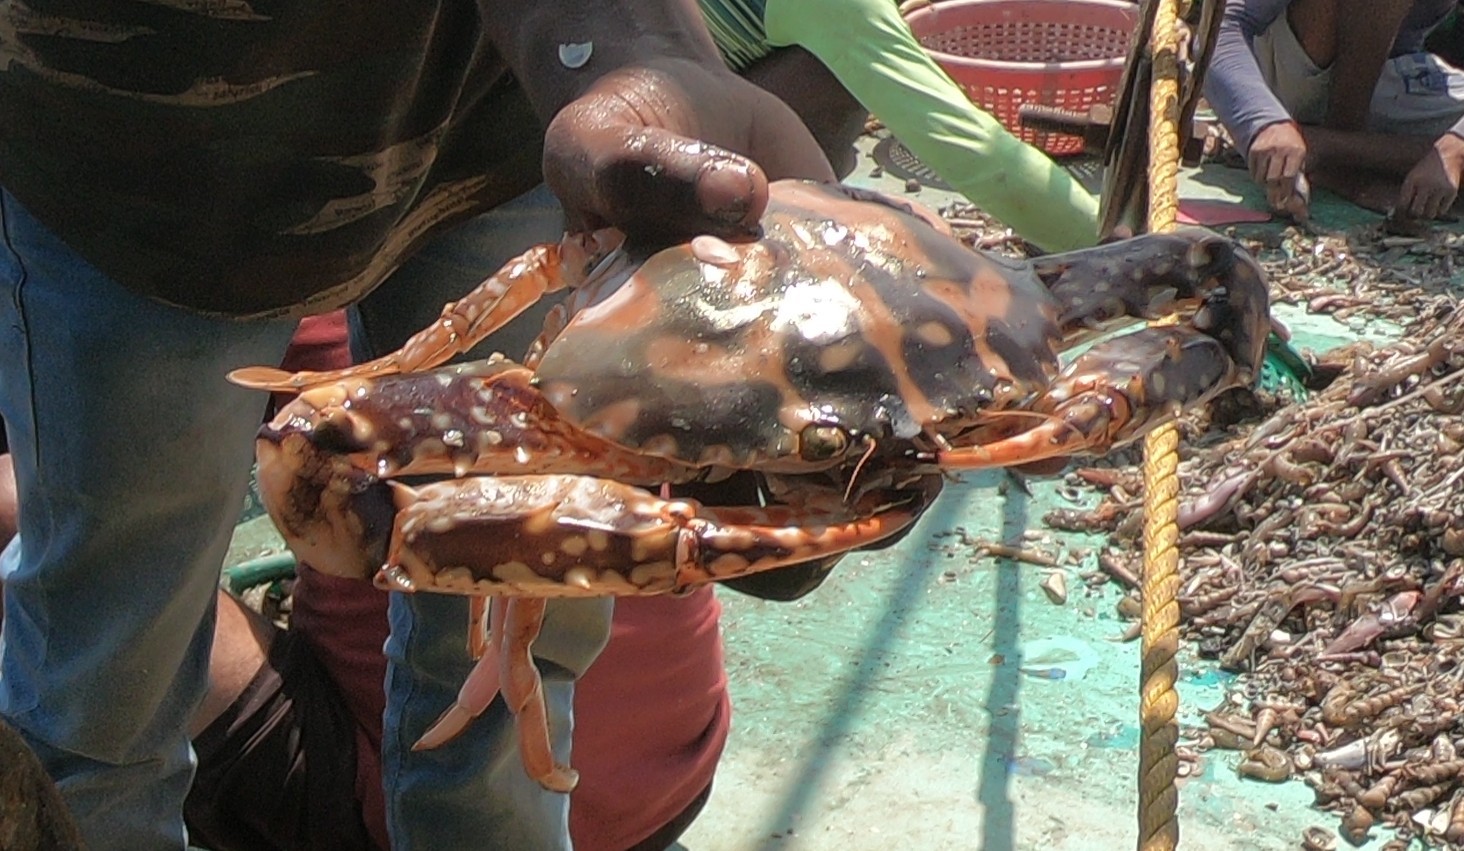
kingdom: Animalia
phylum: Arthropoda
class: Malacostraca
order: Decapoda
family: Portunidae
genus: Charybdis
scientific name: Charybdis feriata
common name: Striped swimming crab
